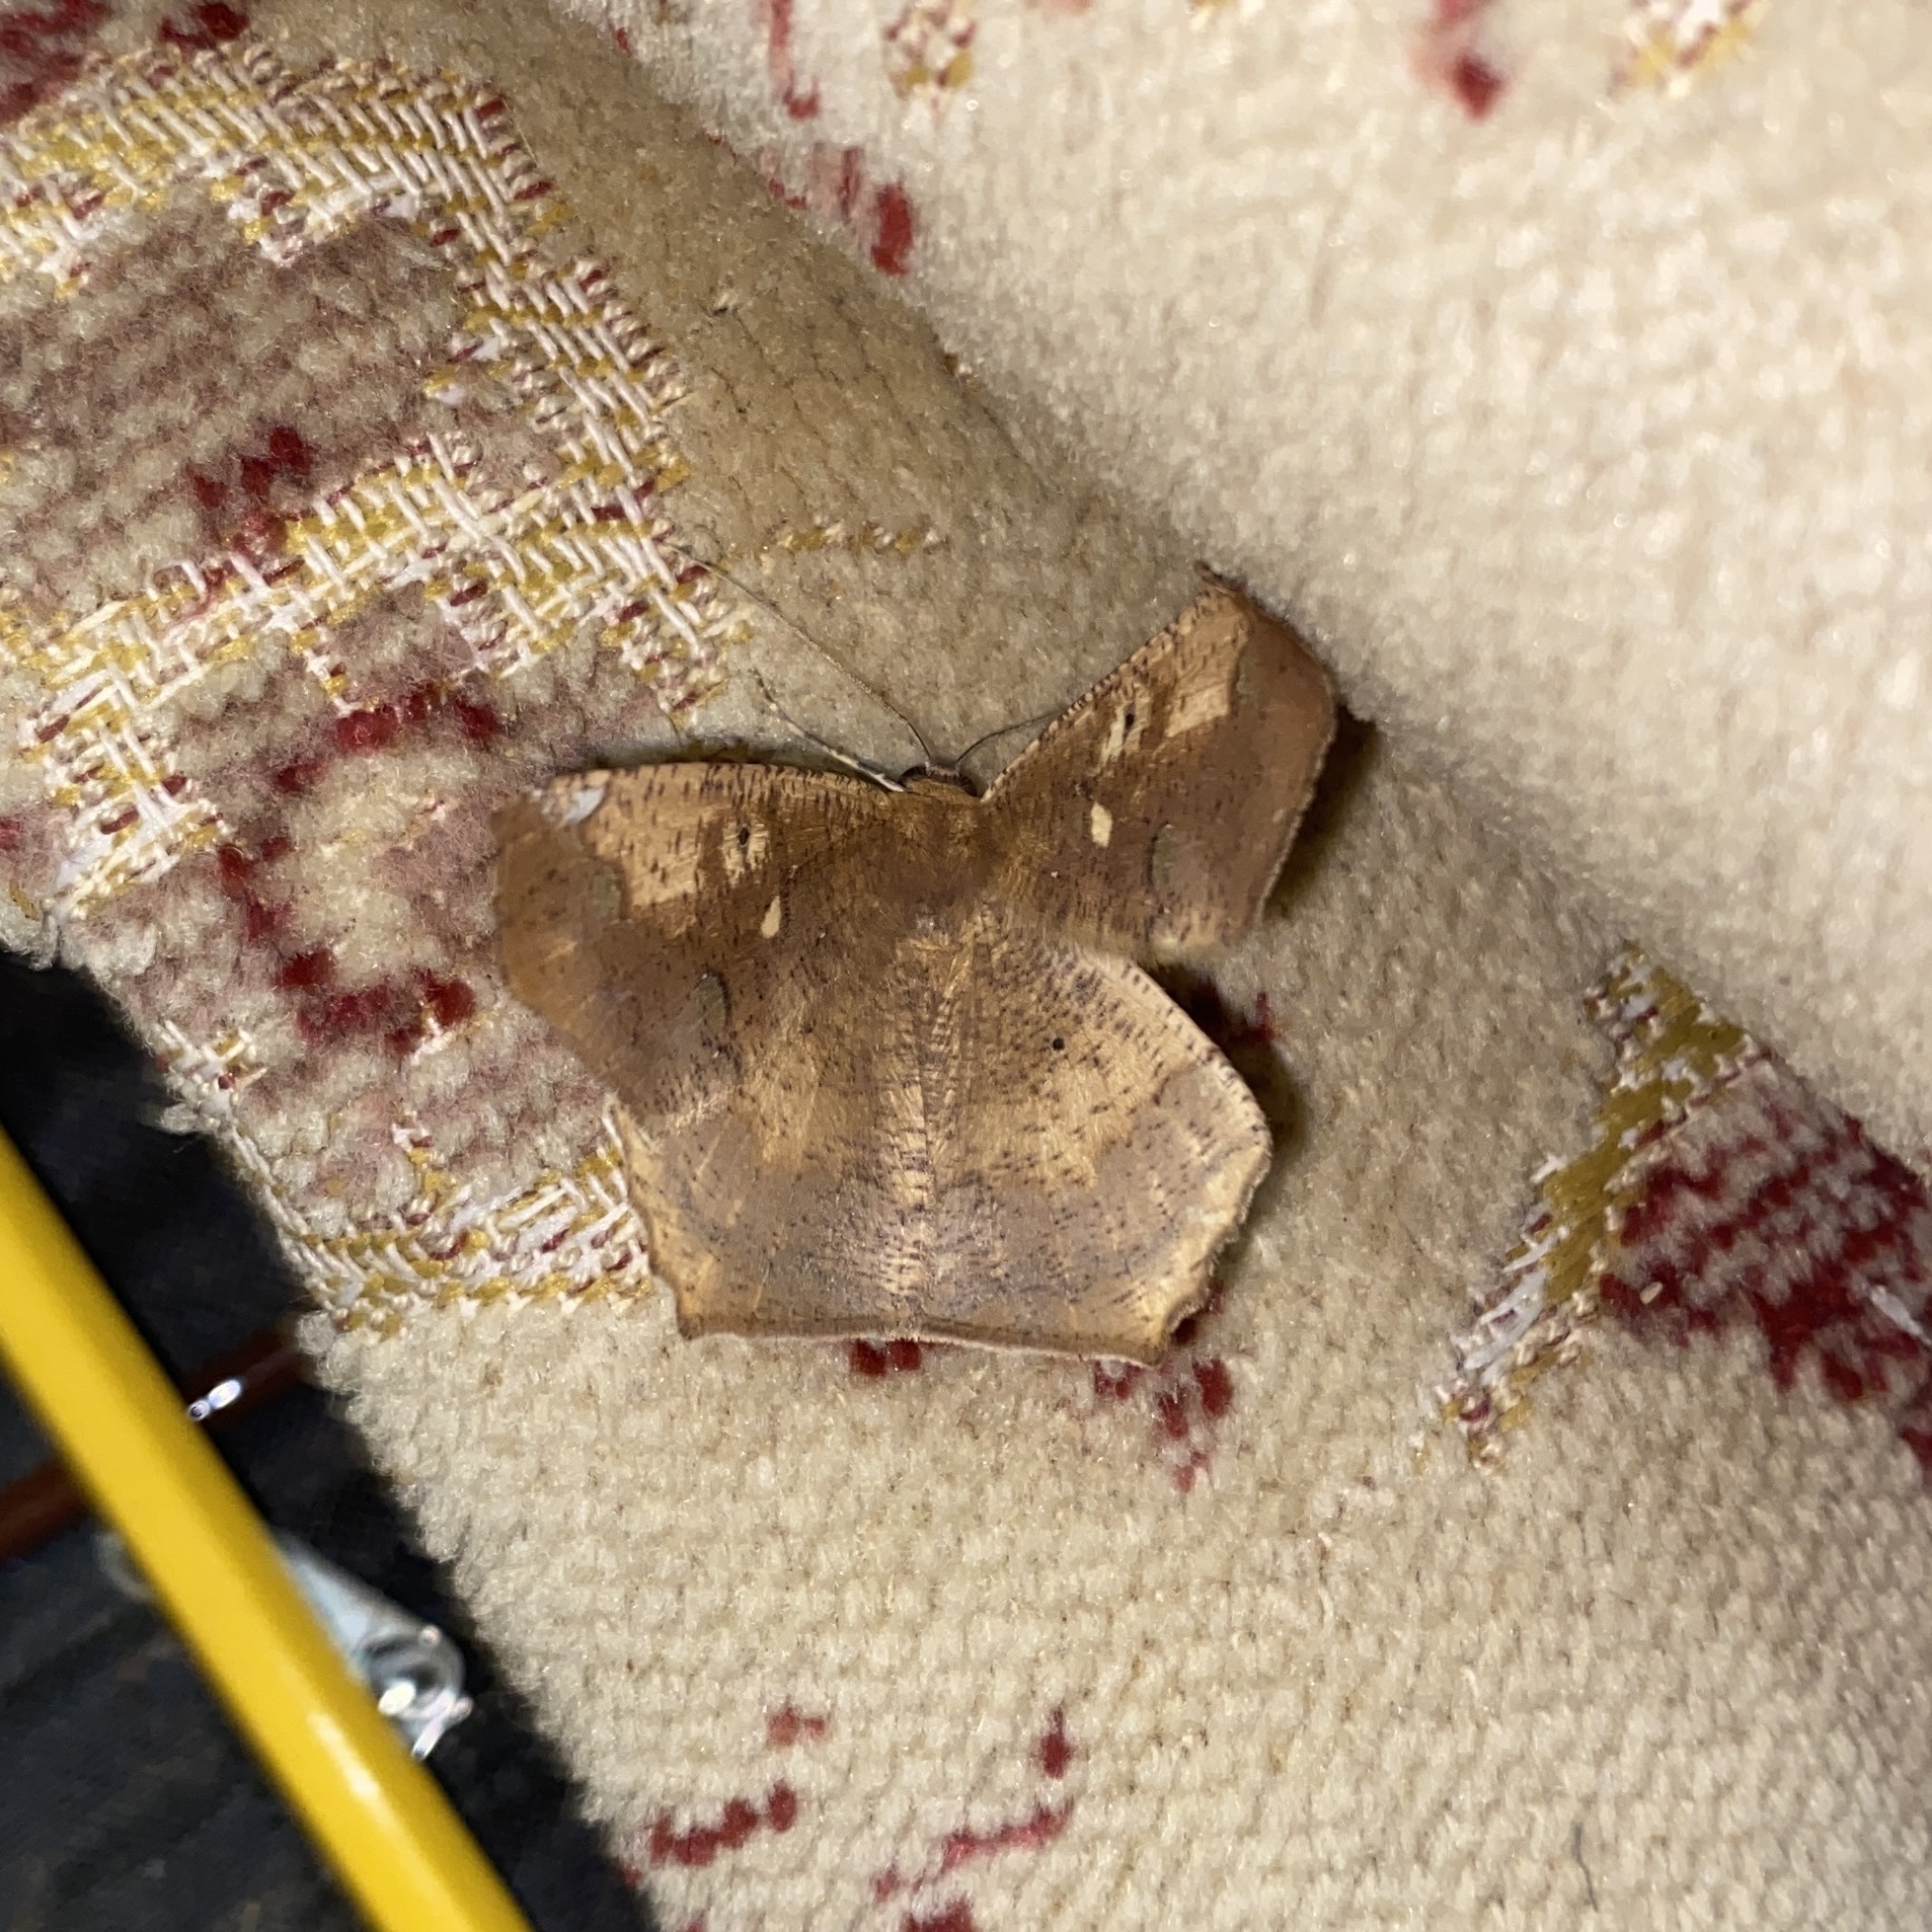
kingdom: Animalia
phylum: Arthropoda
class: Insecta
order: Lepidoptera
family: Geometridae
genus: Paragonia
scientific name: Paragonia cruraria
